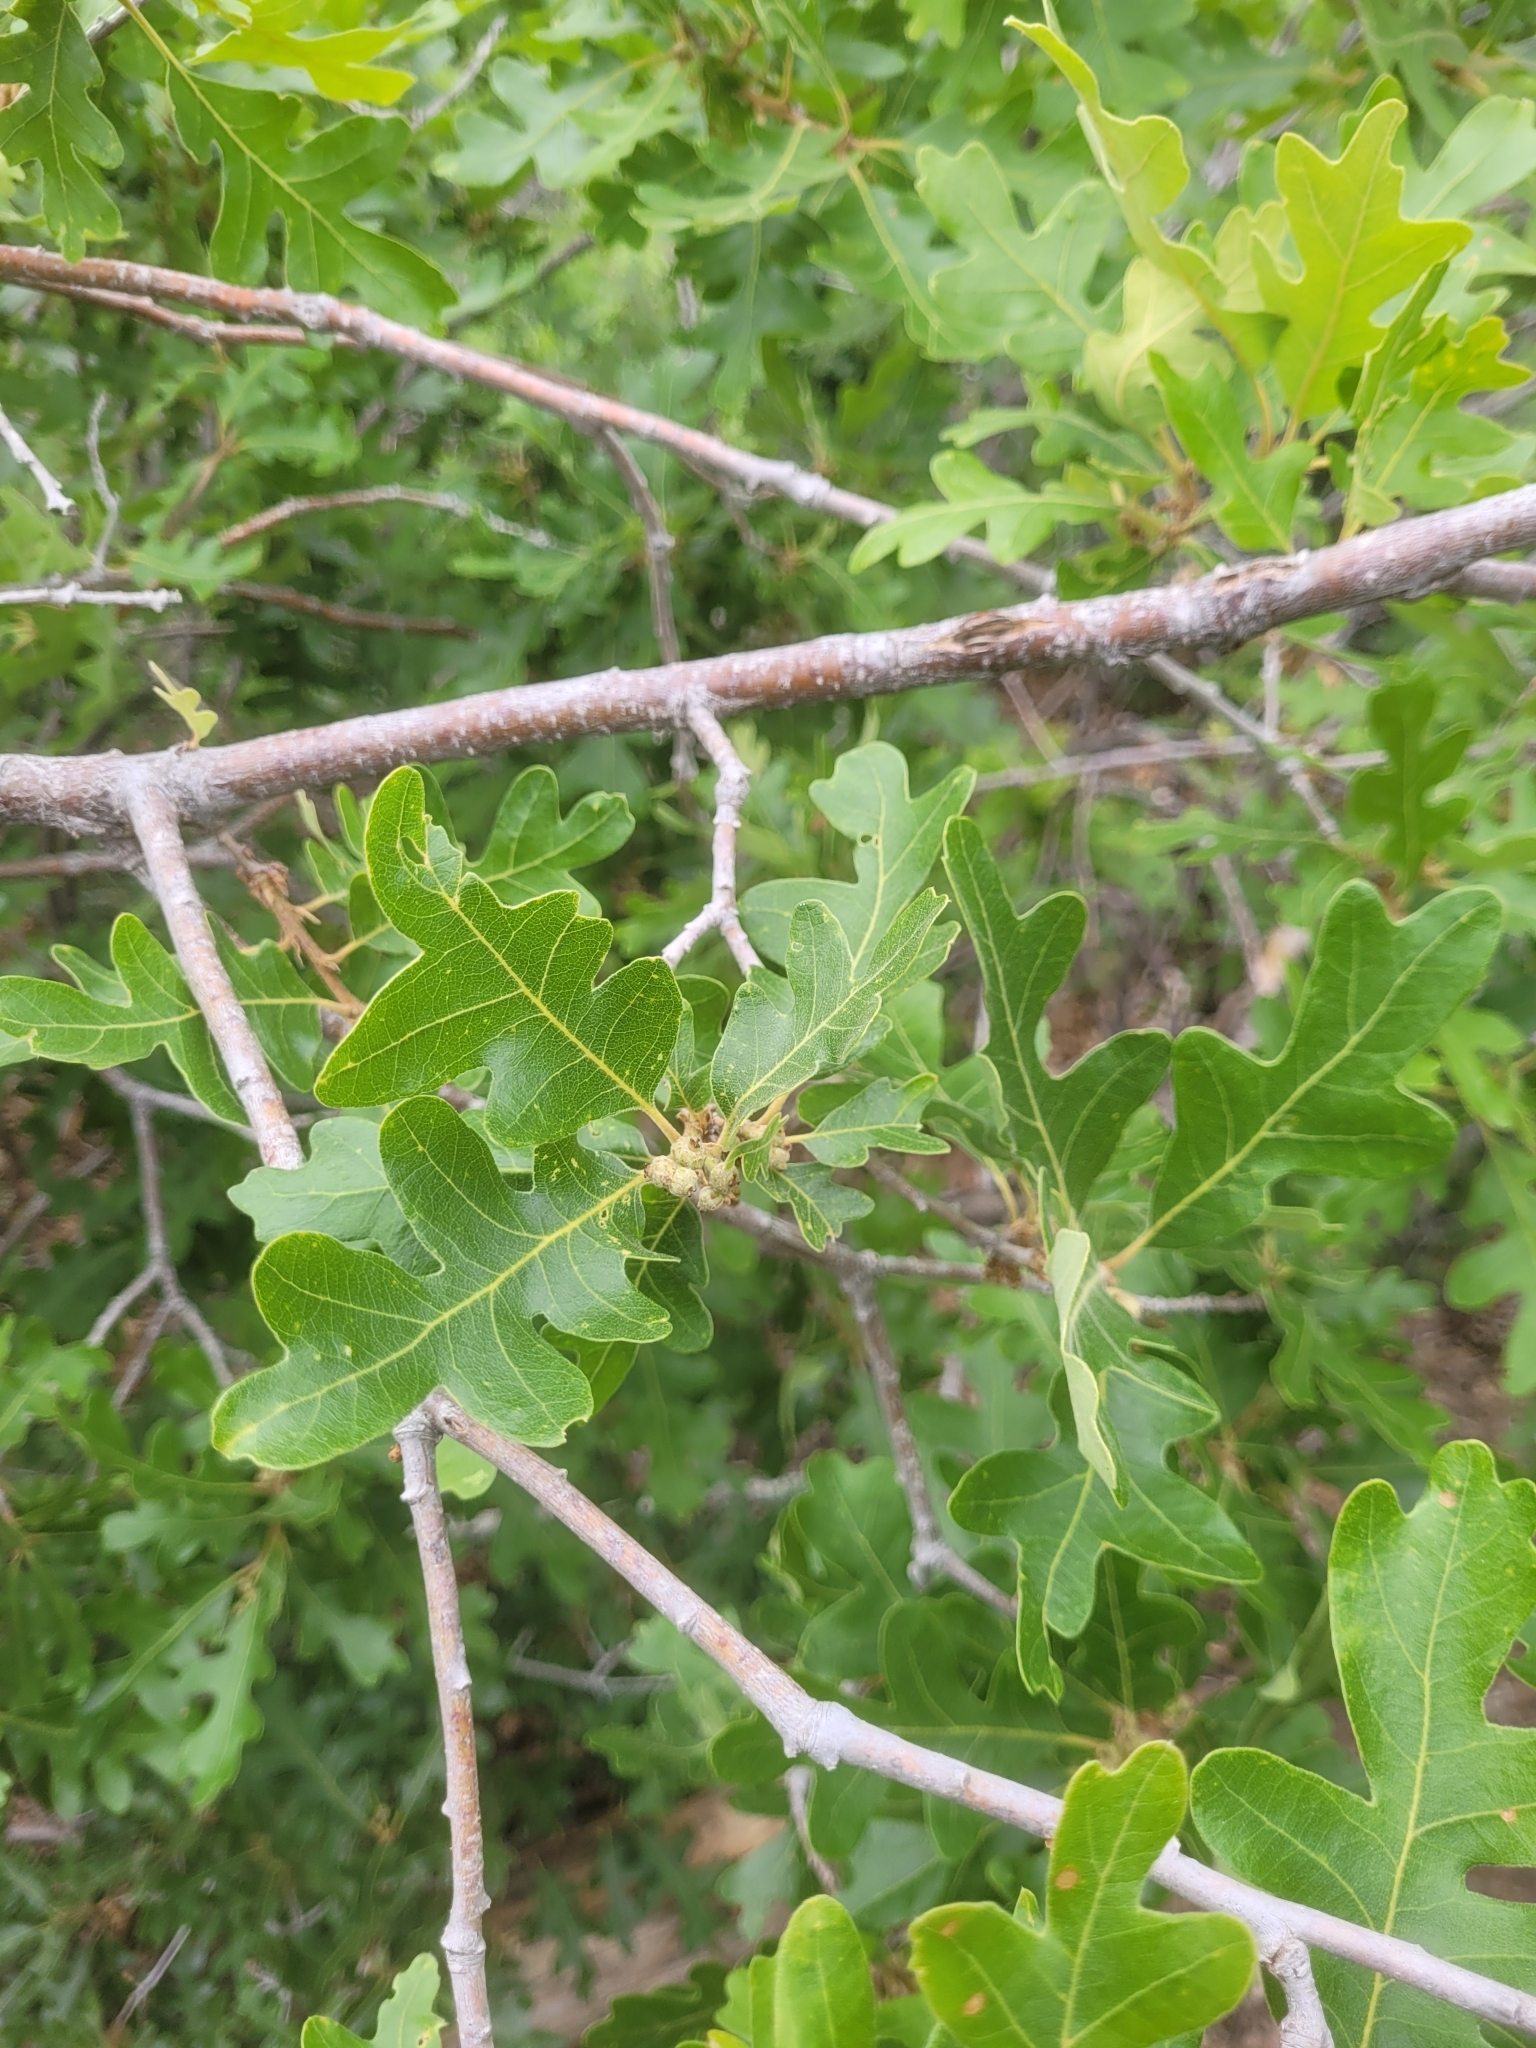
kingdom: Plantae
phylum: Tracheophyta
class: Magnoliopsida
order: Fagales
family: Fagaceae
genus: Quercus
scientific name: Quercus gambelii
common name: Gambel oak
